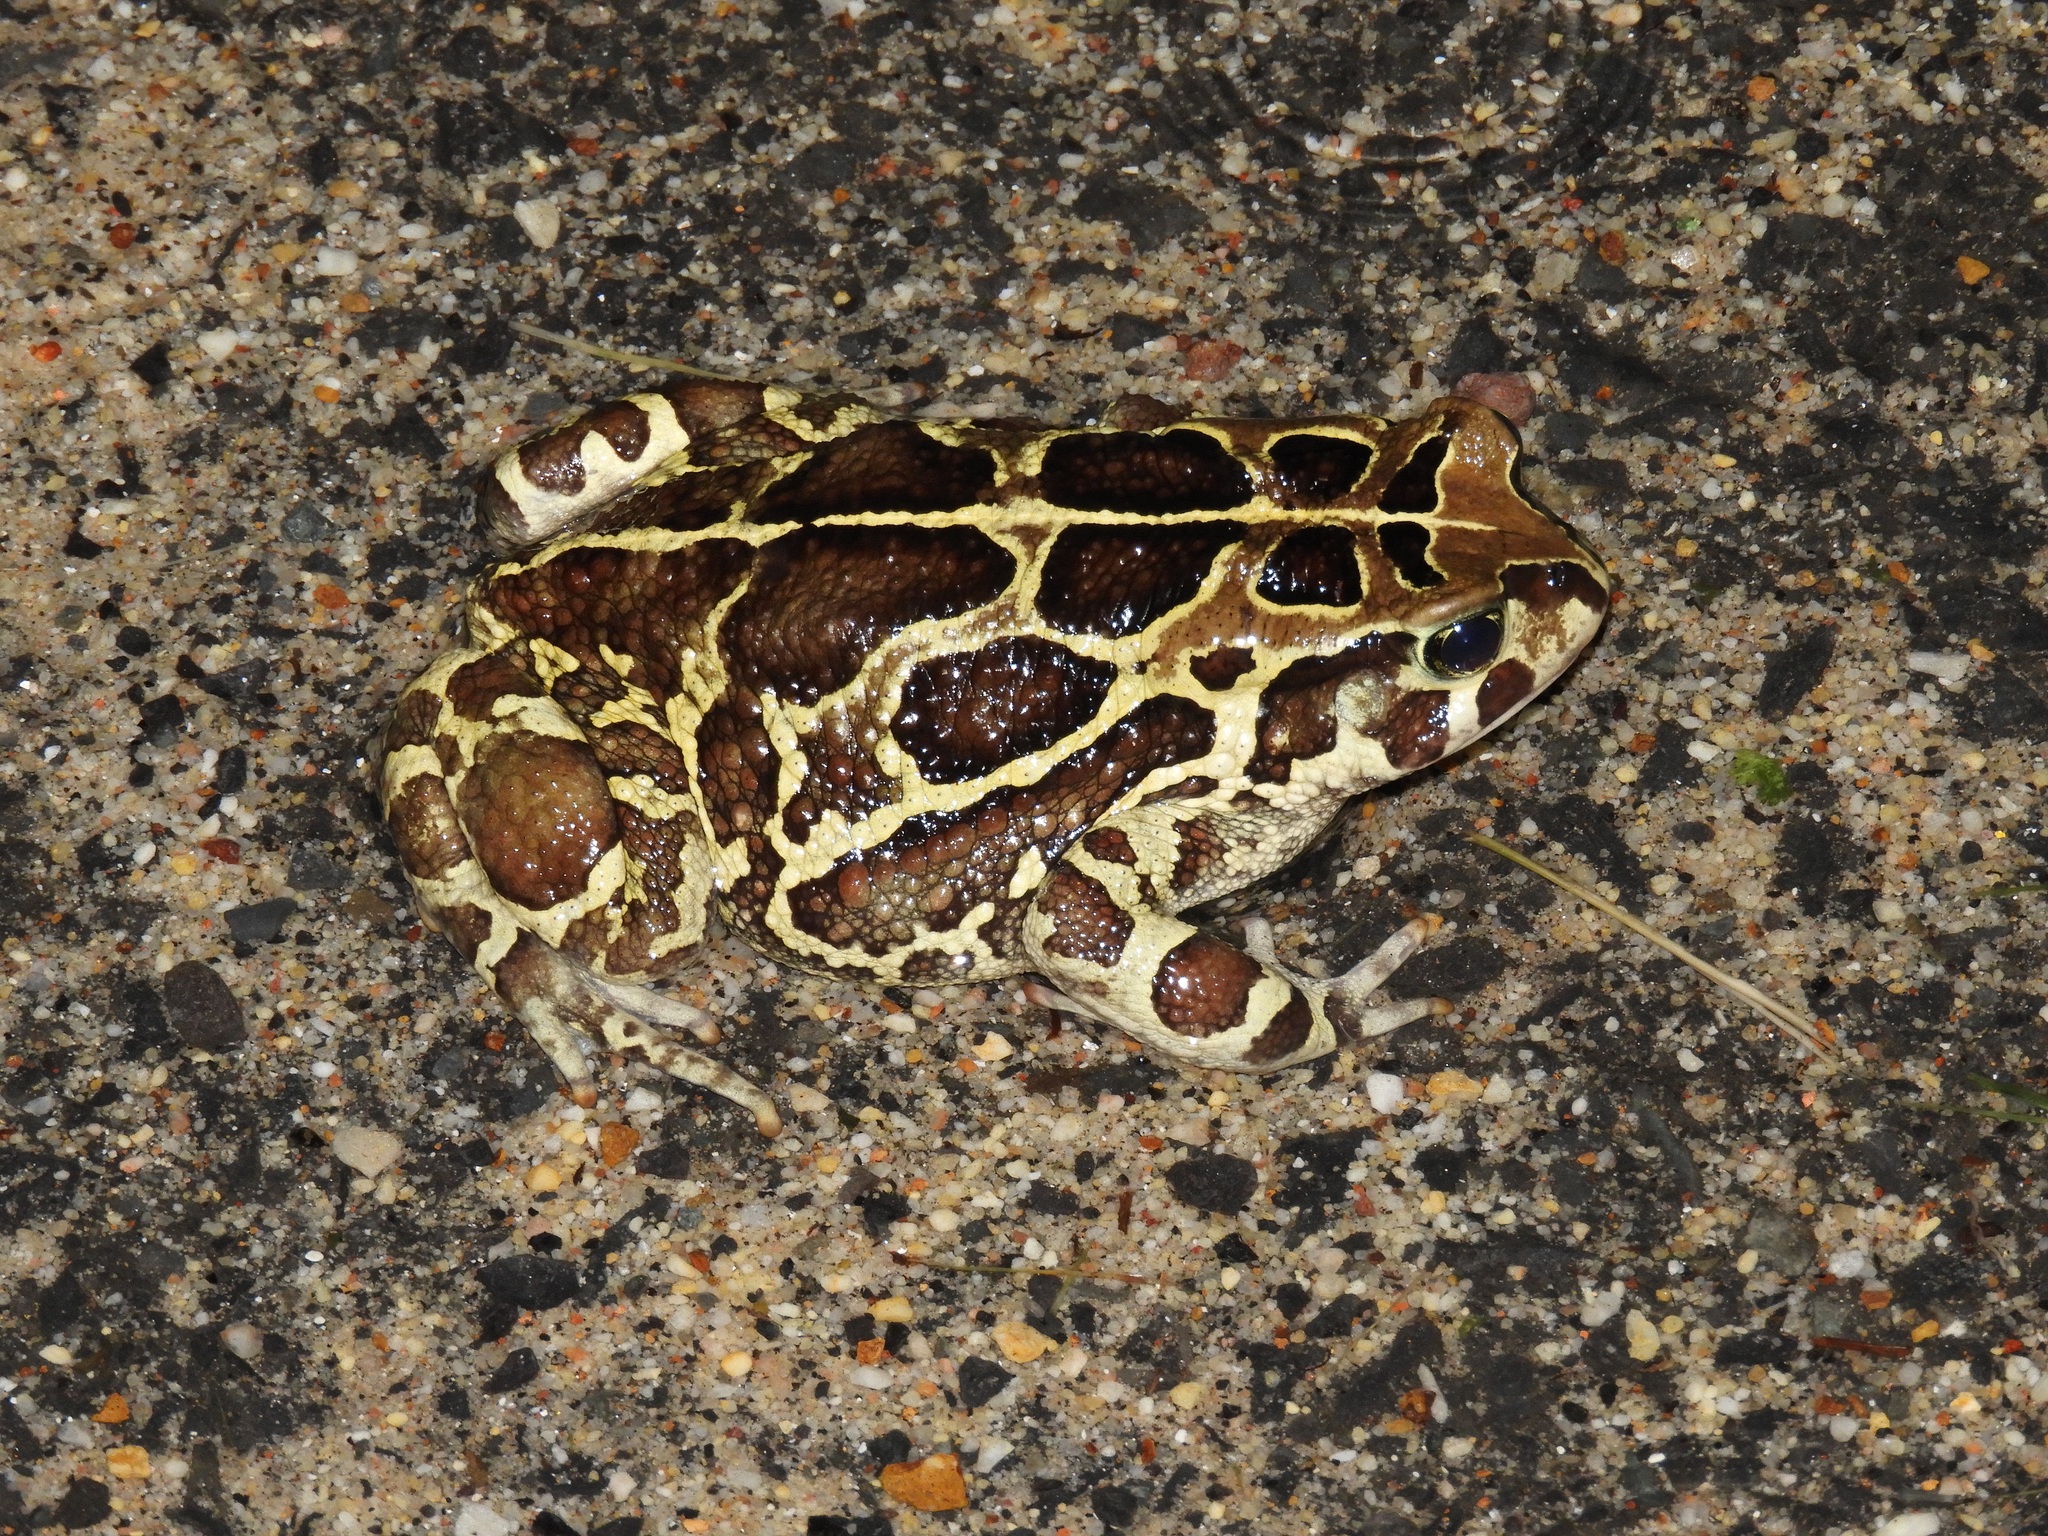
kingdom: Animalia
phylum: Chordata
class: Amphibia
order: Anura
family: Bufonidae
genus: Sclerophrys
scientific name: Sclerophrys pantherina
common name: Panther toad
